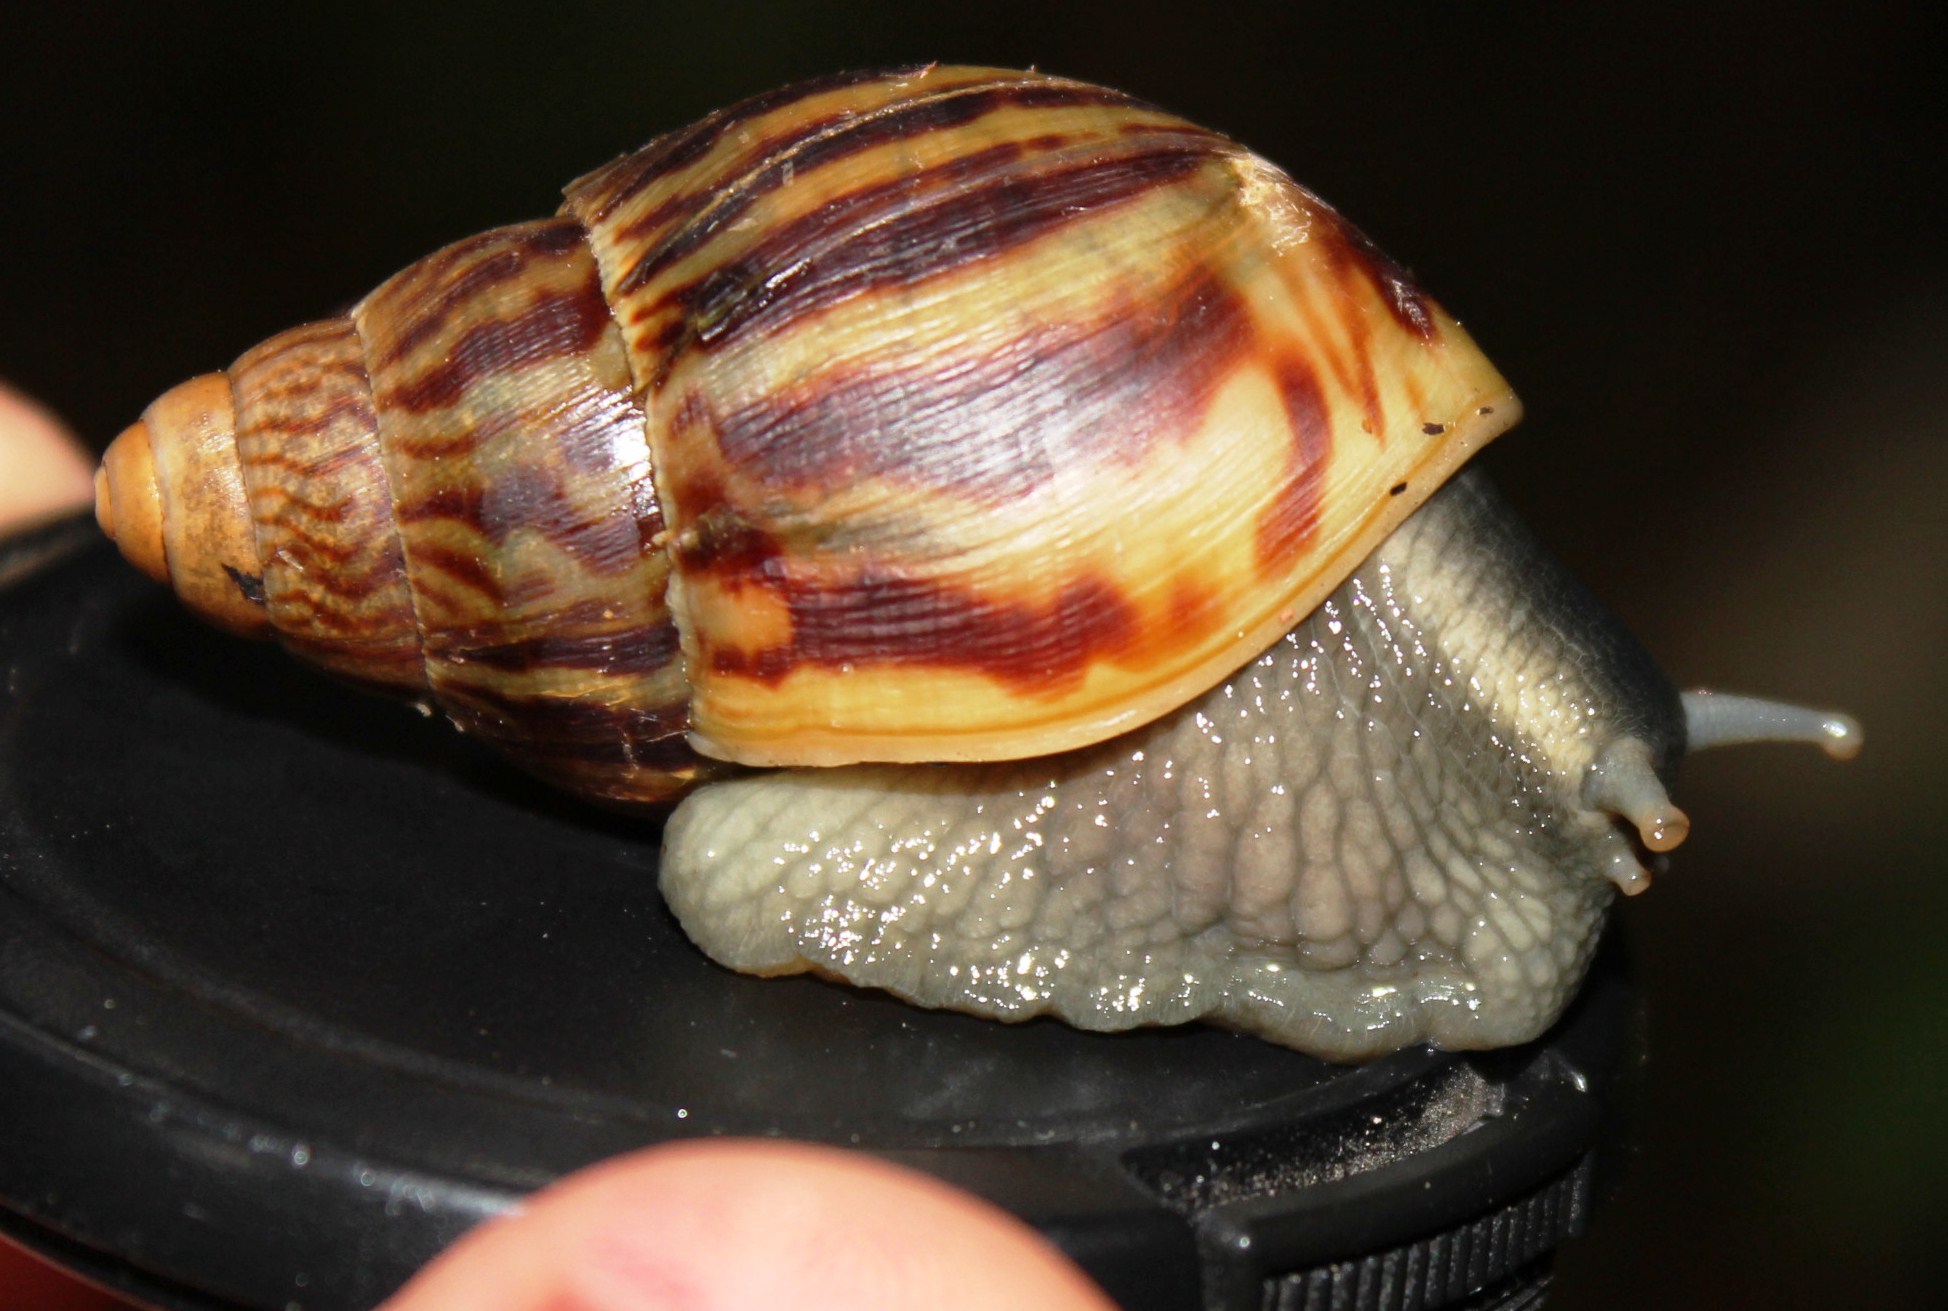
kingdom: Animalia
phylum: Mollusca
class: Gastropoda
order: Stylommatophora
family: Achatinidae
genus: Cochlitoma
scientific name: Cochlitoma zebra
